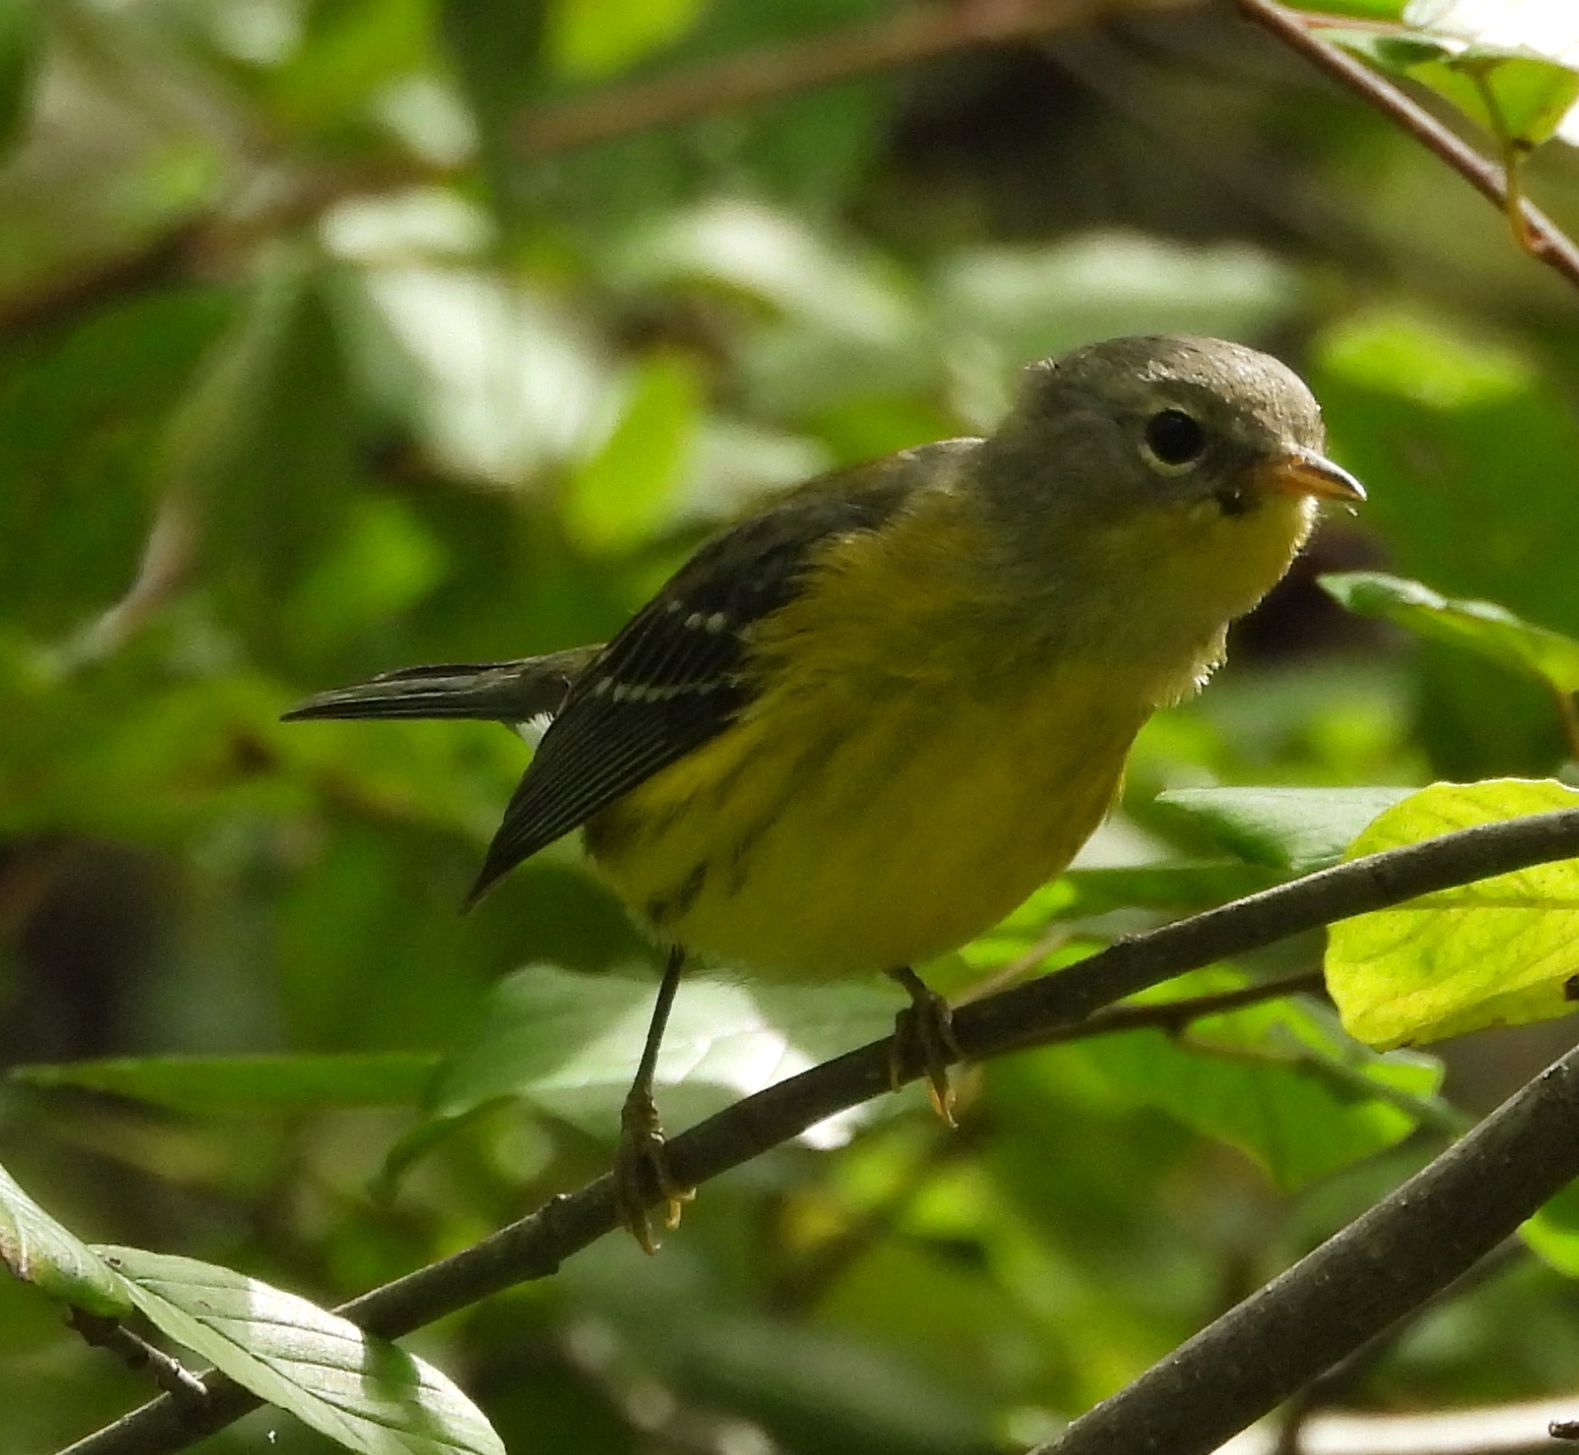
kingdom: Animalia
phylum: Chordata
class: Aves
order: Passeriformes
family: Parulidae
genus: Setophaga
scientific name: Setophaga magnolia
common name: Magnolia warbler
